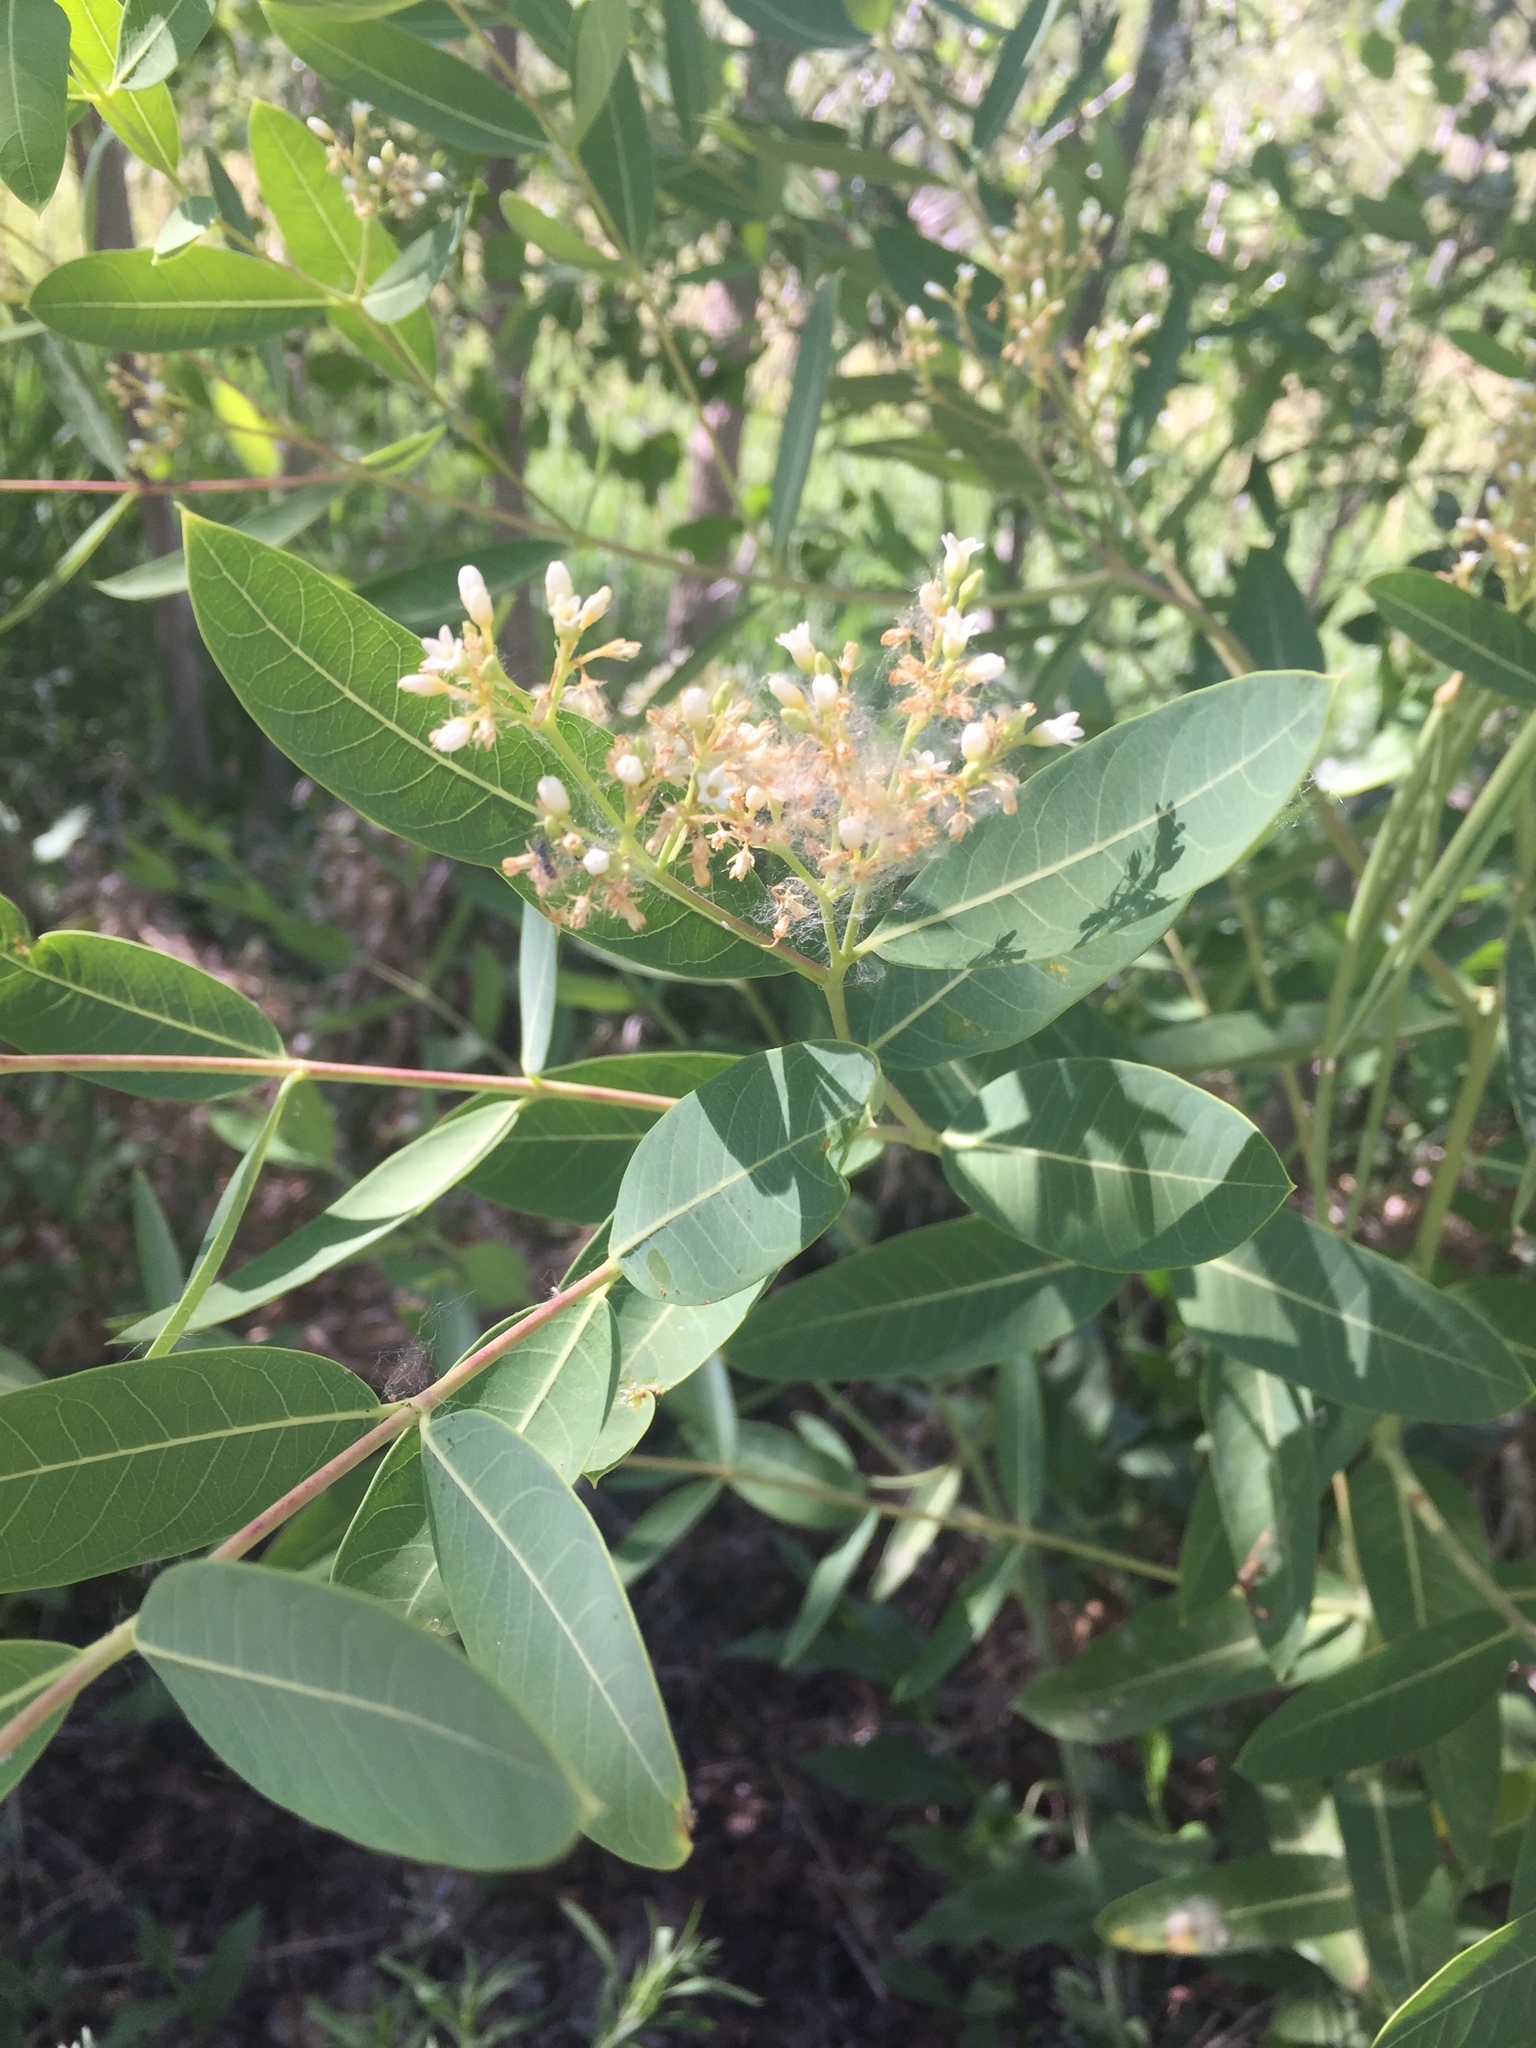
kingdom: Plantae
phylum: Tracheophyta
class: Magnoliopsida
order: Gentianales
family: Apocynaceae
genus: Apocynum
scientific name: Apocynum cannabinum
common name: Hemp dogbane
